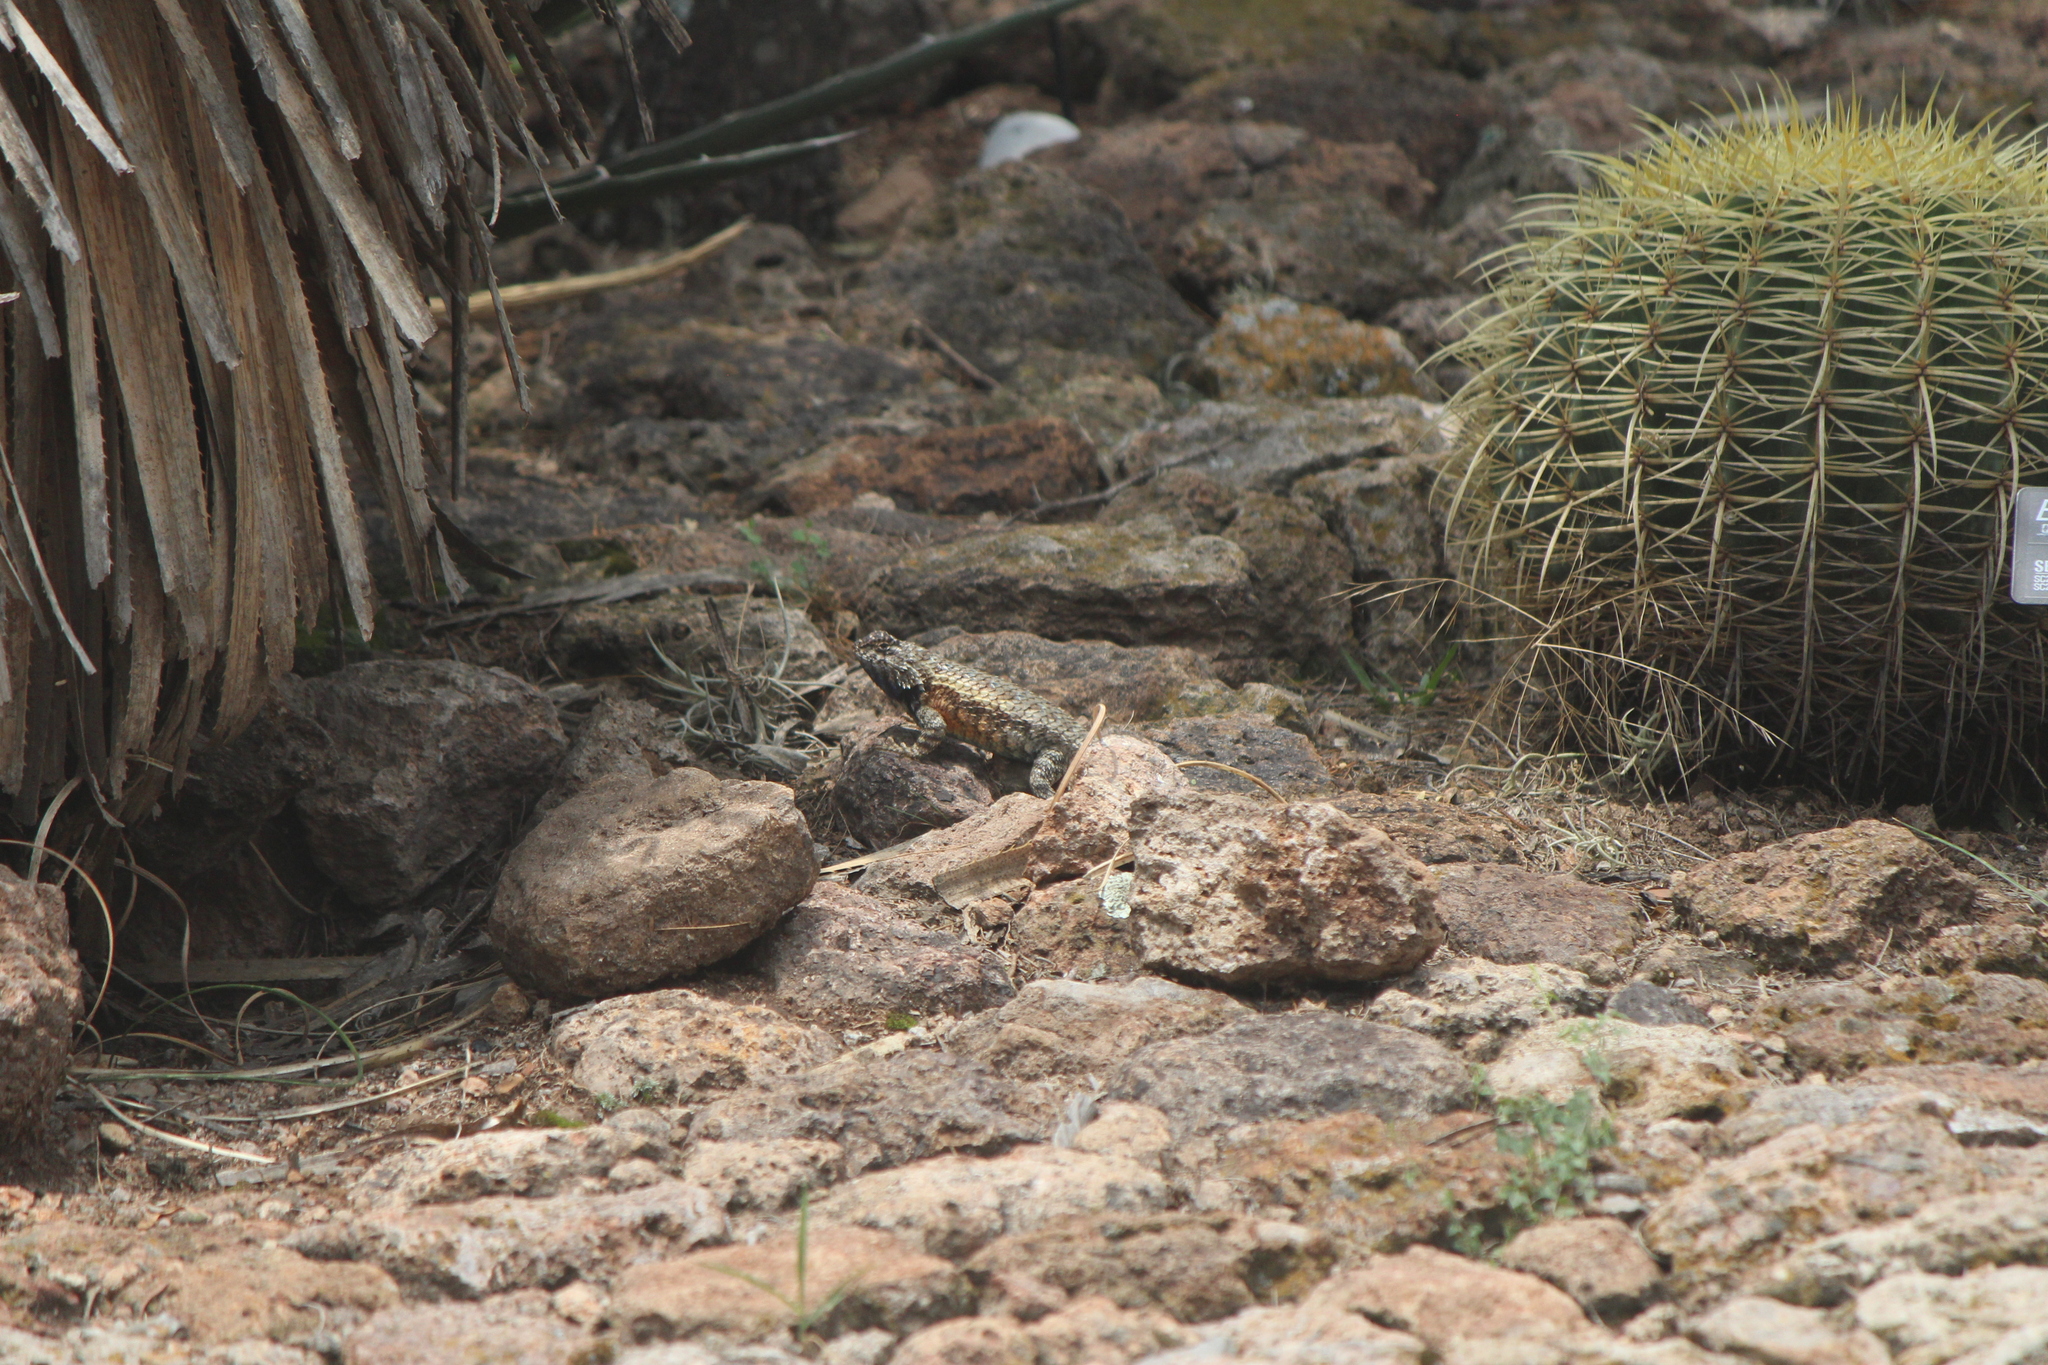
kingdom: Animalia
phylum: Chordata
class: Squamata
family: Phrynosomatidae
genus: Sceloporus
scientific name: Sceloporus spinosus
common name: Blue-spotted spiny lizard [caeruleopunctatus]
